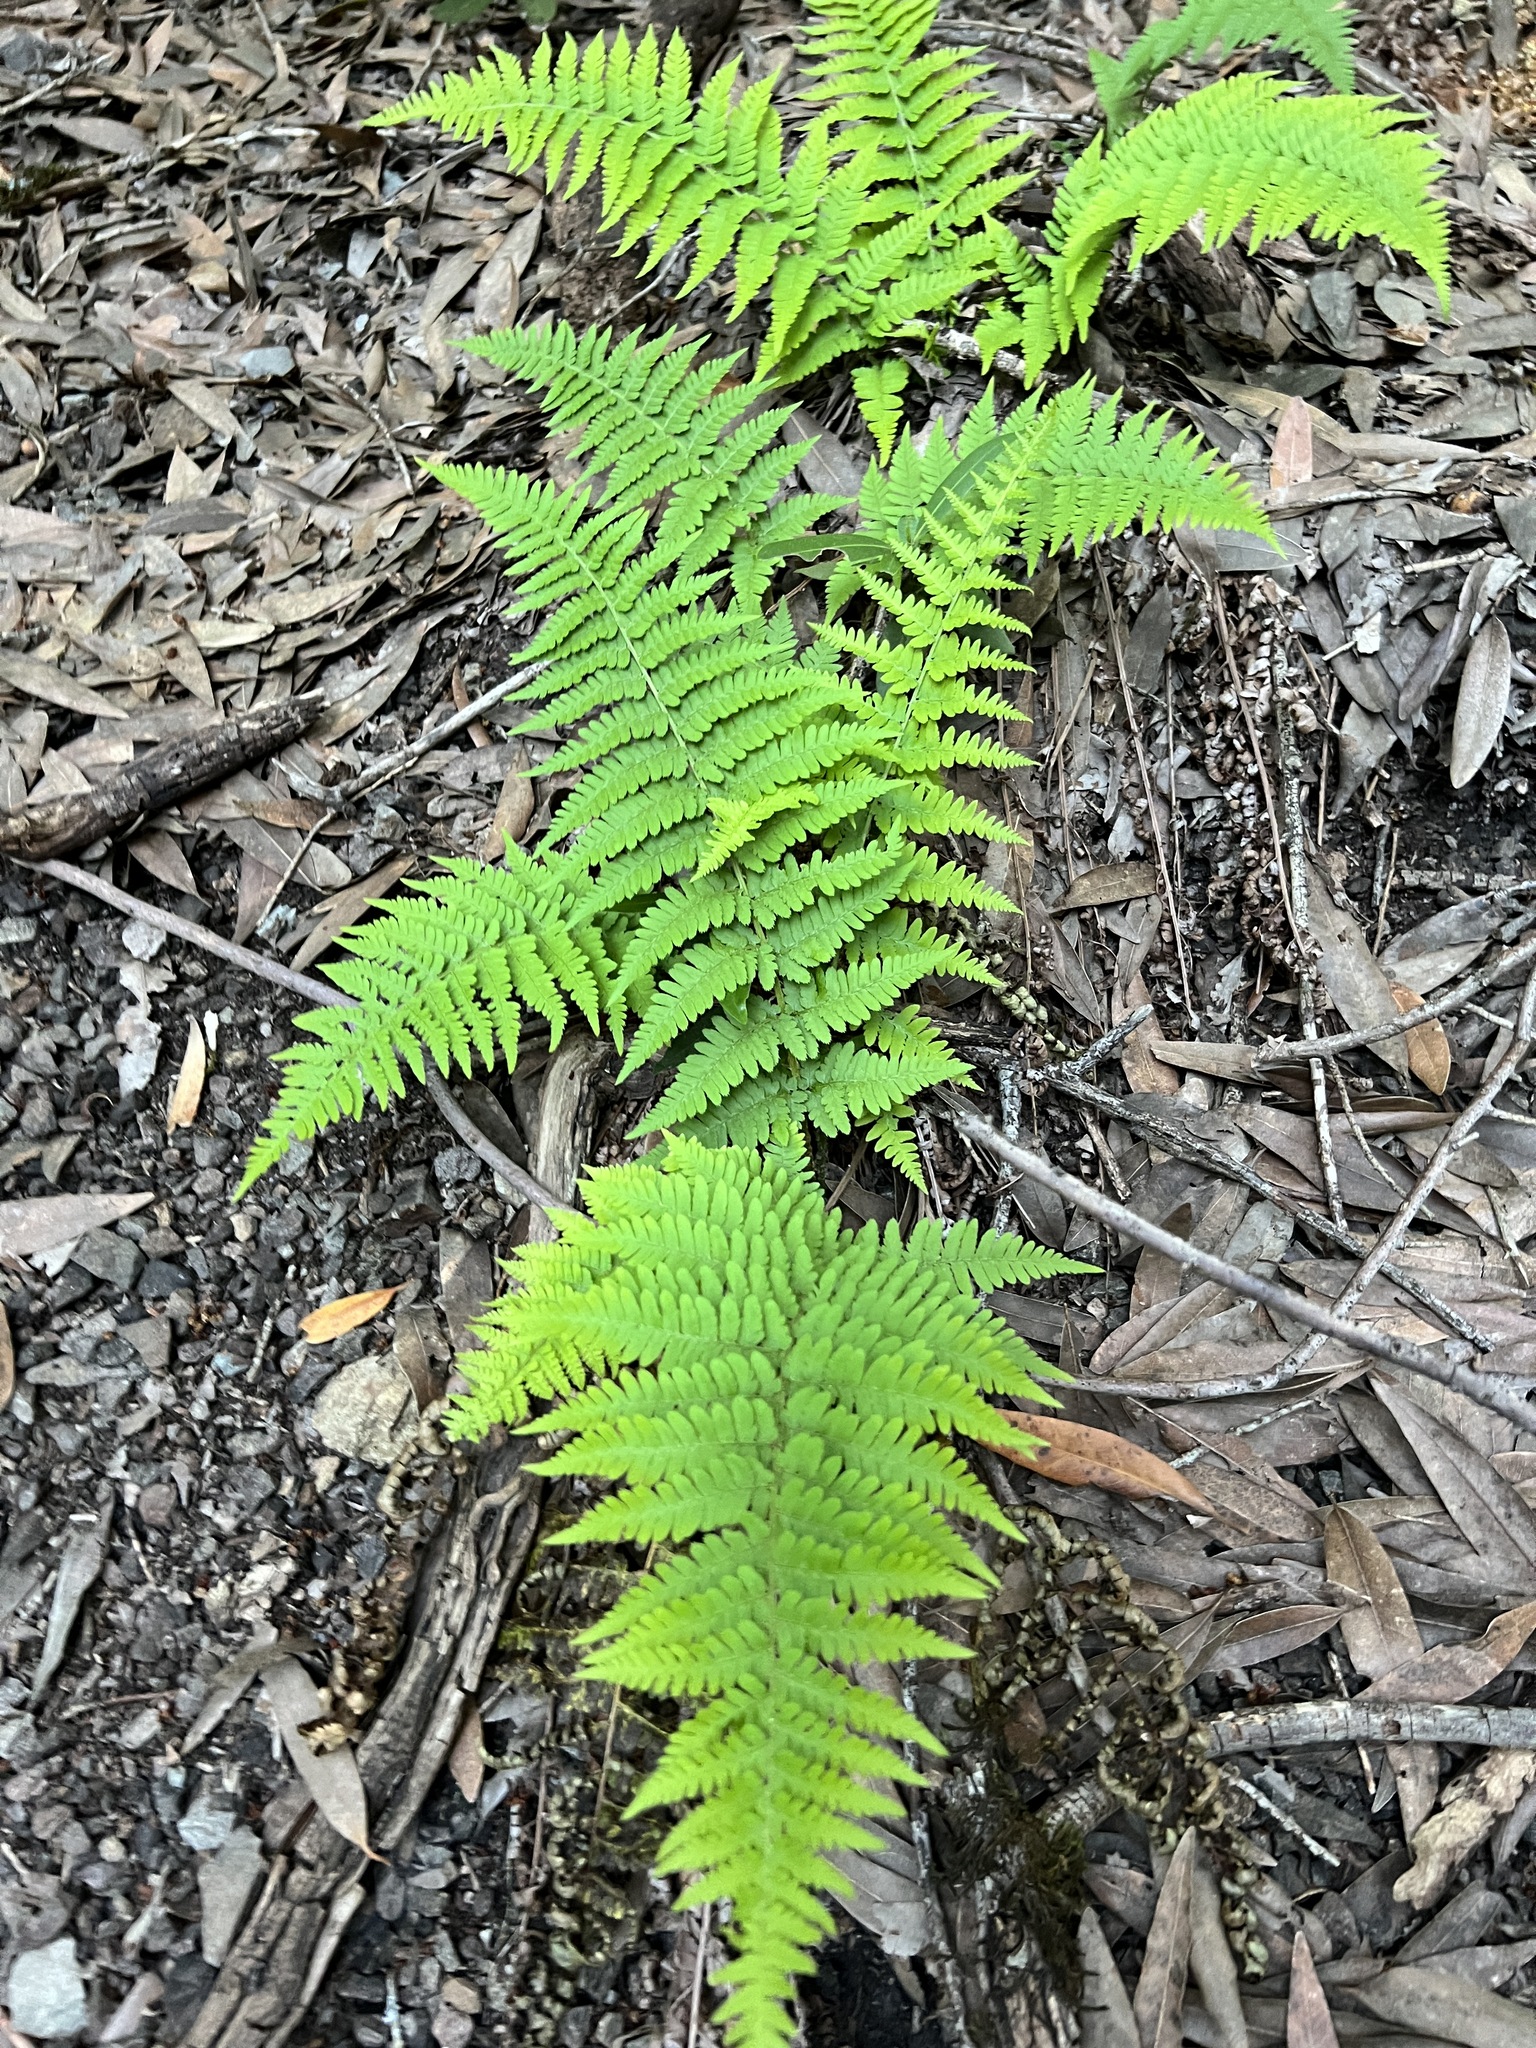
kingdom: Plantae
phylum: Tracheophyta
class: Polypodiopsida
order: Polypodiales
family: Dryopteridaceae
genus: Dryopteris
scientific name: Dryopteris arguta
